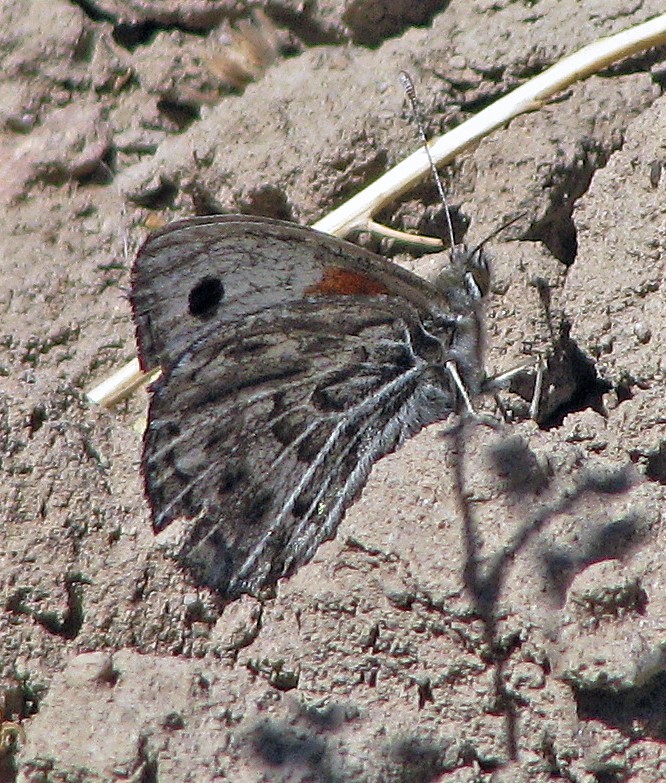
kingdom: Animalia
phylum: Arthropoda
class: Insecta
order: Lepidoptera
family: Nymphalidae
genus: Argyrophorus
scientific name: Argyrophorus argenteus
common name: Silver satyr
